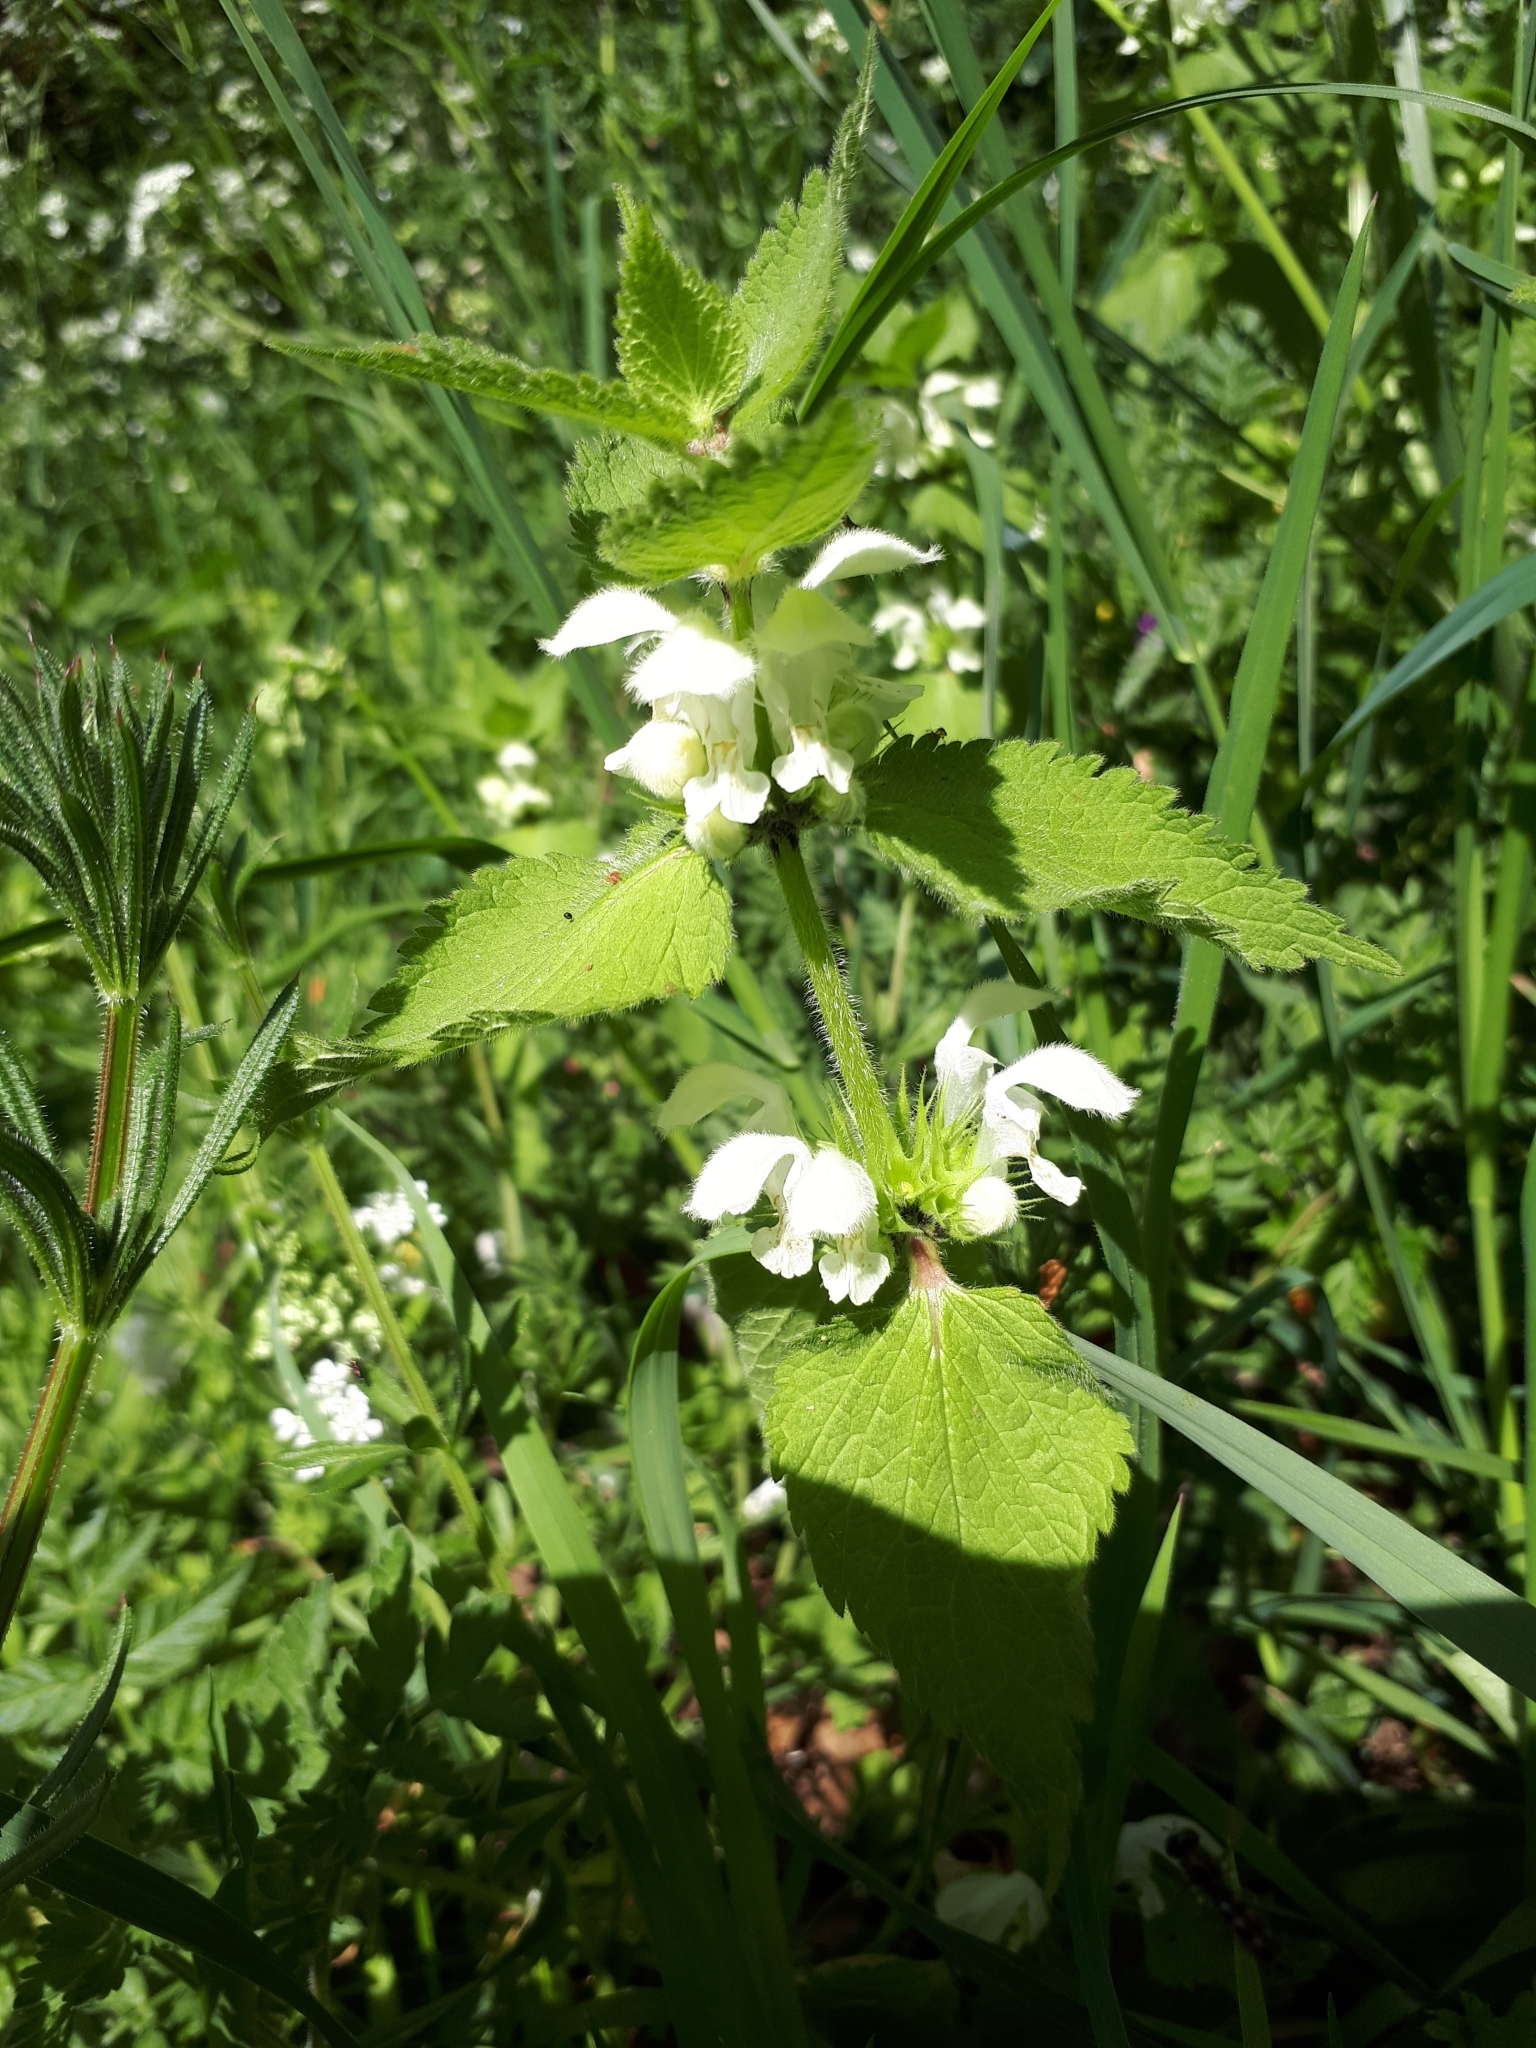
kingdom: Plantae
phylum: Tracheophyta
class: Magnoliopsida
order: Lamiales
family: Lamiaceae
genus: Lamium
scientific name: Lamium album
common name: White dead-nettle
